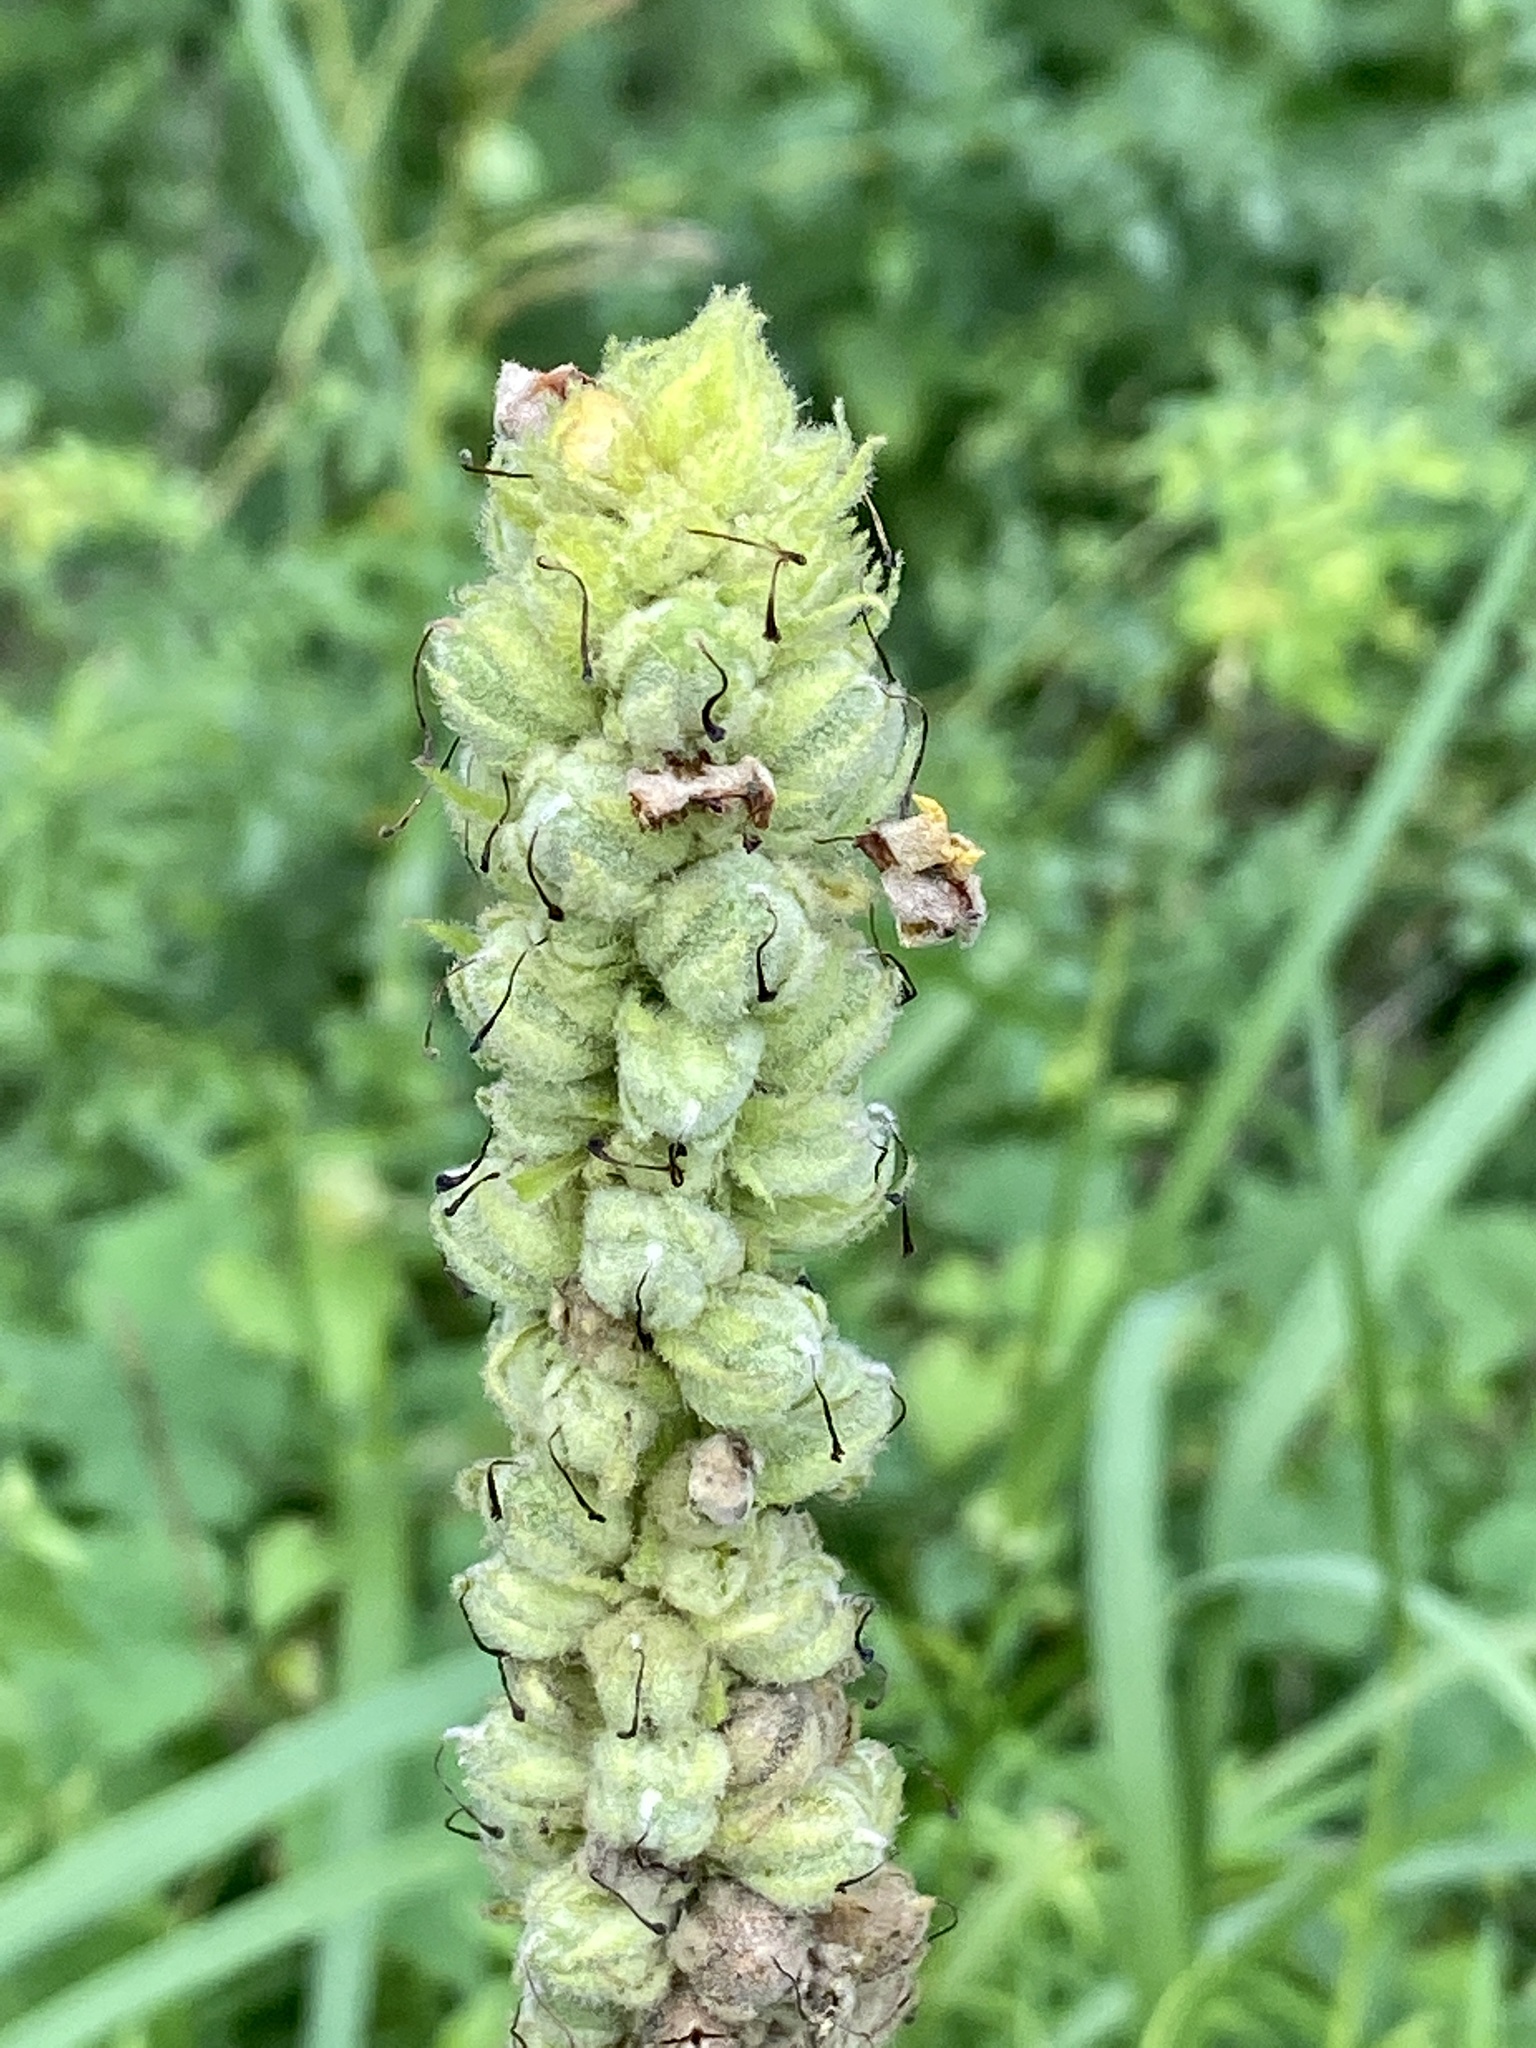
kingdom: Plantae
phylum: Tracheophyta
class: Magnoliopsida
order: Lamiales
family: Scrophulariaceae
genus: Verbascum
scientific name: Verbascum thapsus
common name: Common mullein
